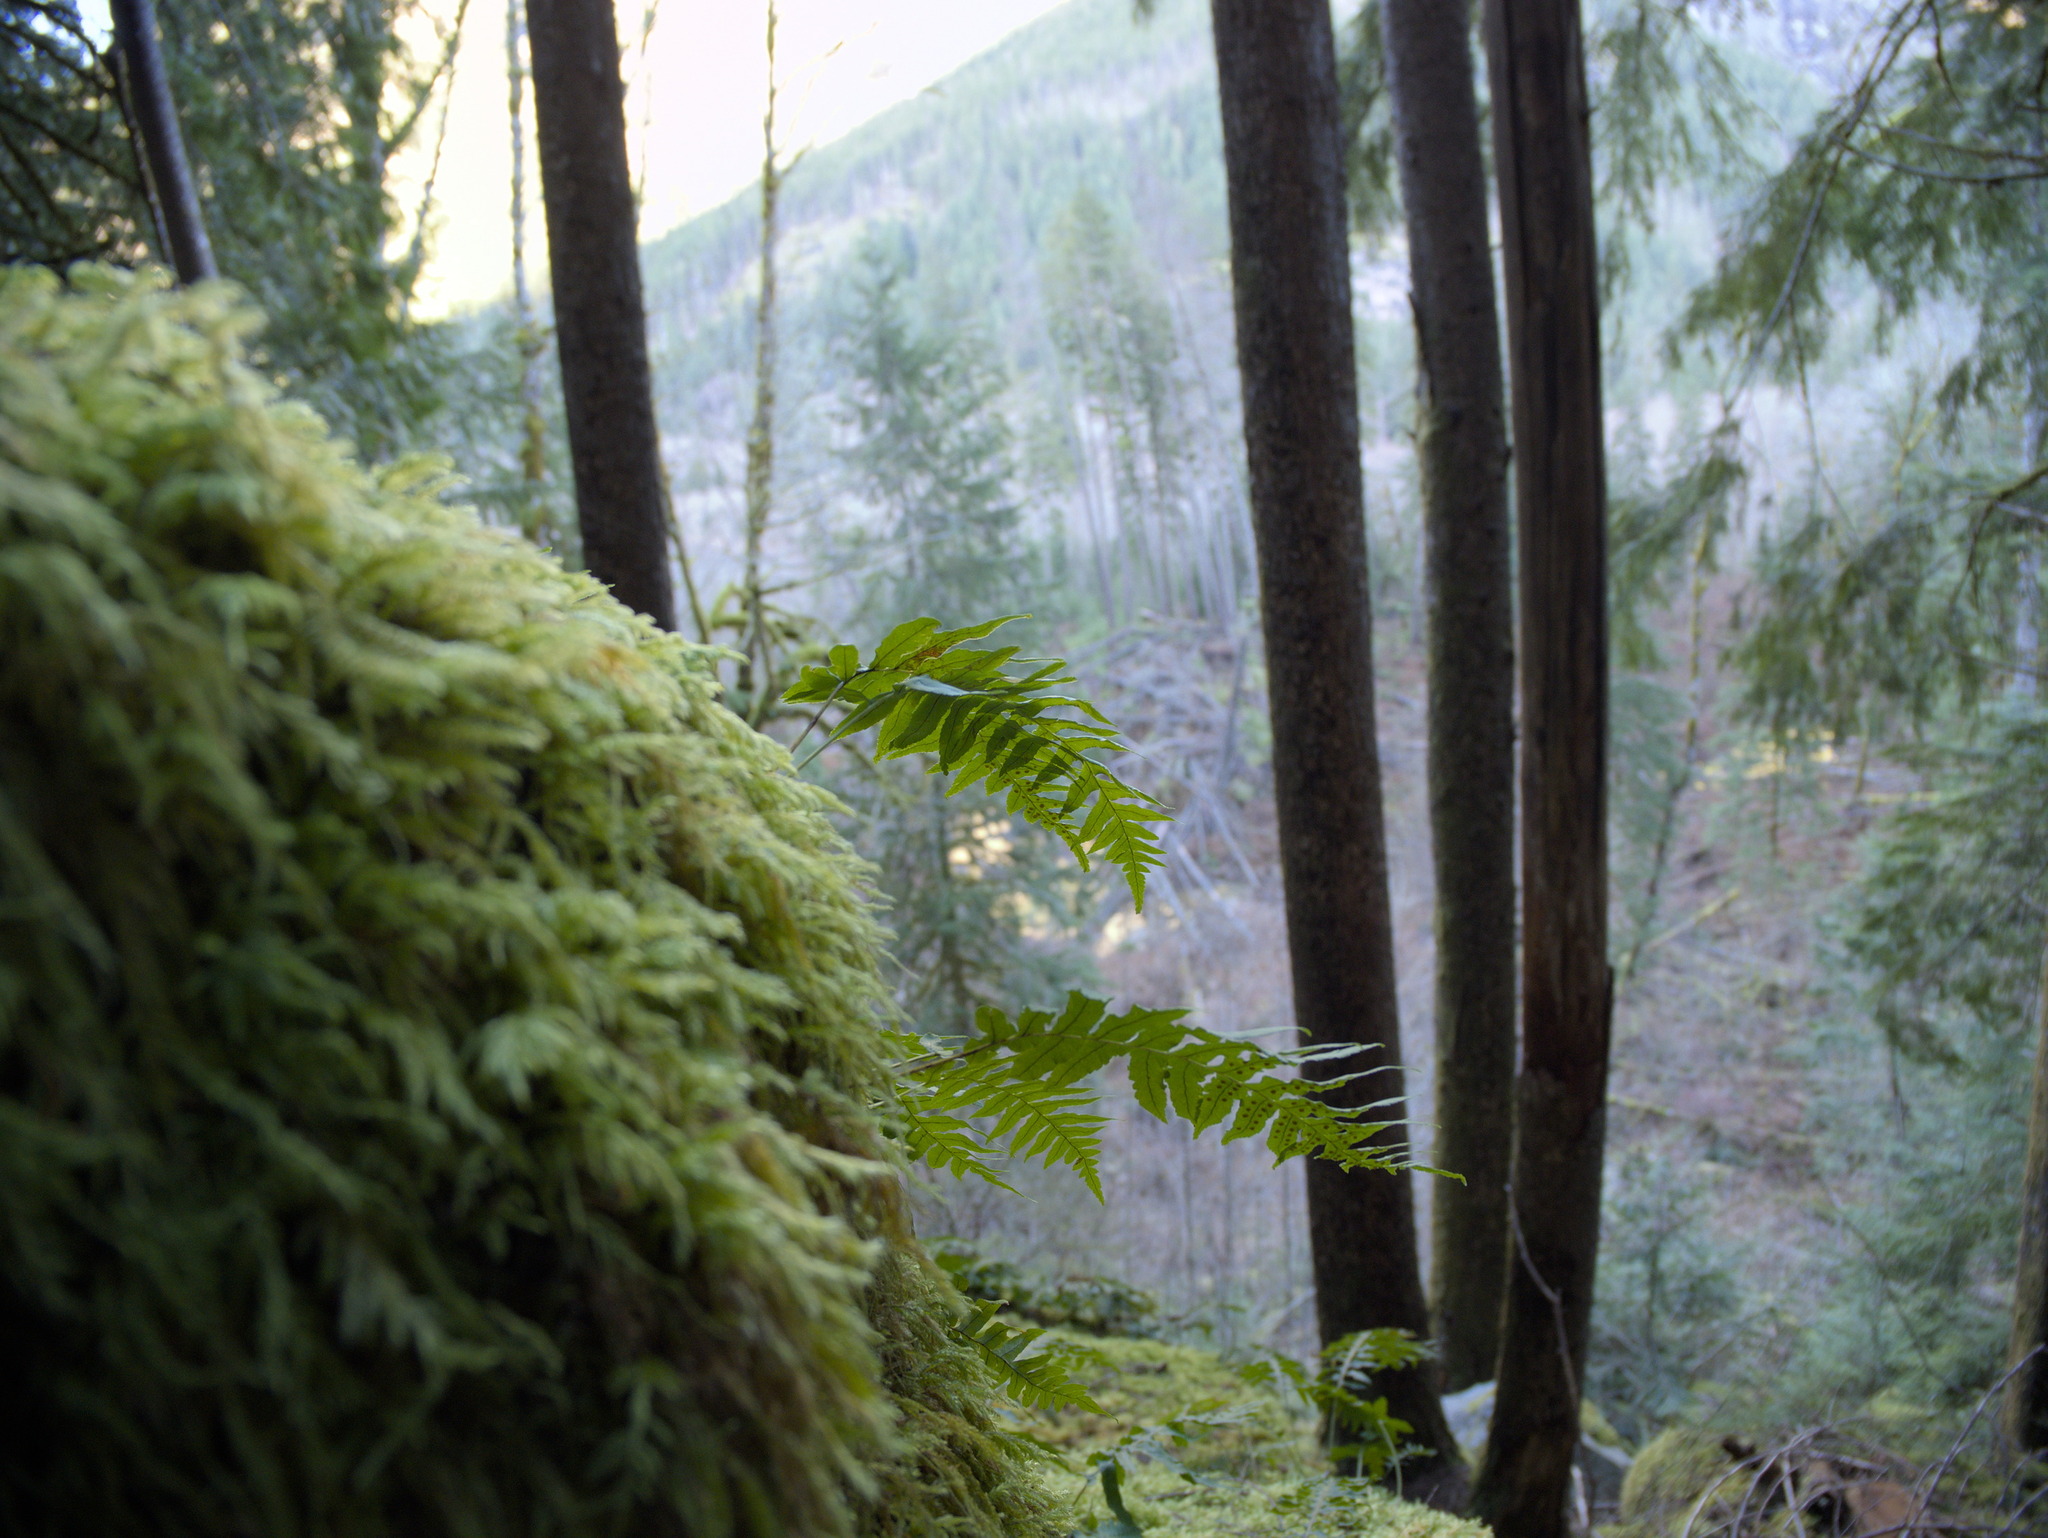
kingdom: Plantae
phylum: Tracheophyta
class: Polypodiopsida
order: Polypodiales
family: Polypodiaceae
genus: Polypodium
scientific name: Polypodium glycyrrhiza
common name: Licorice fern
